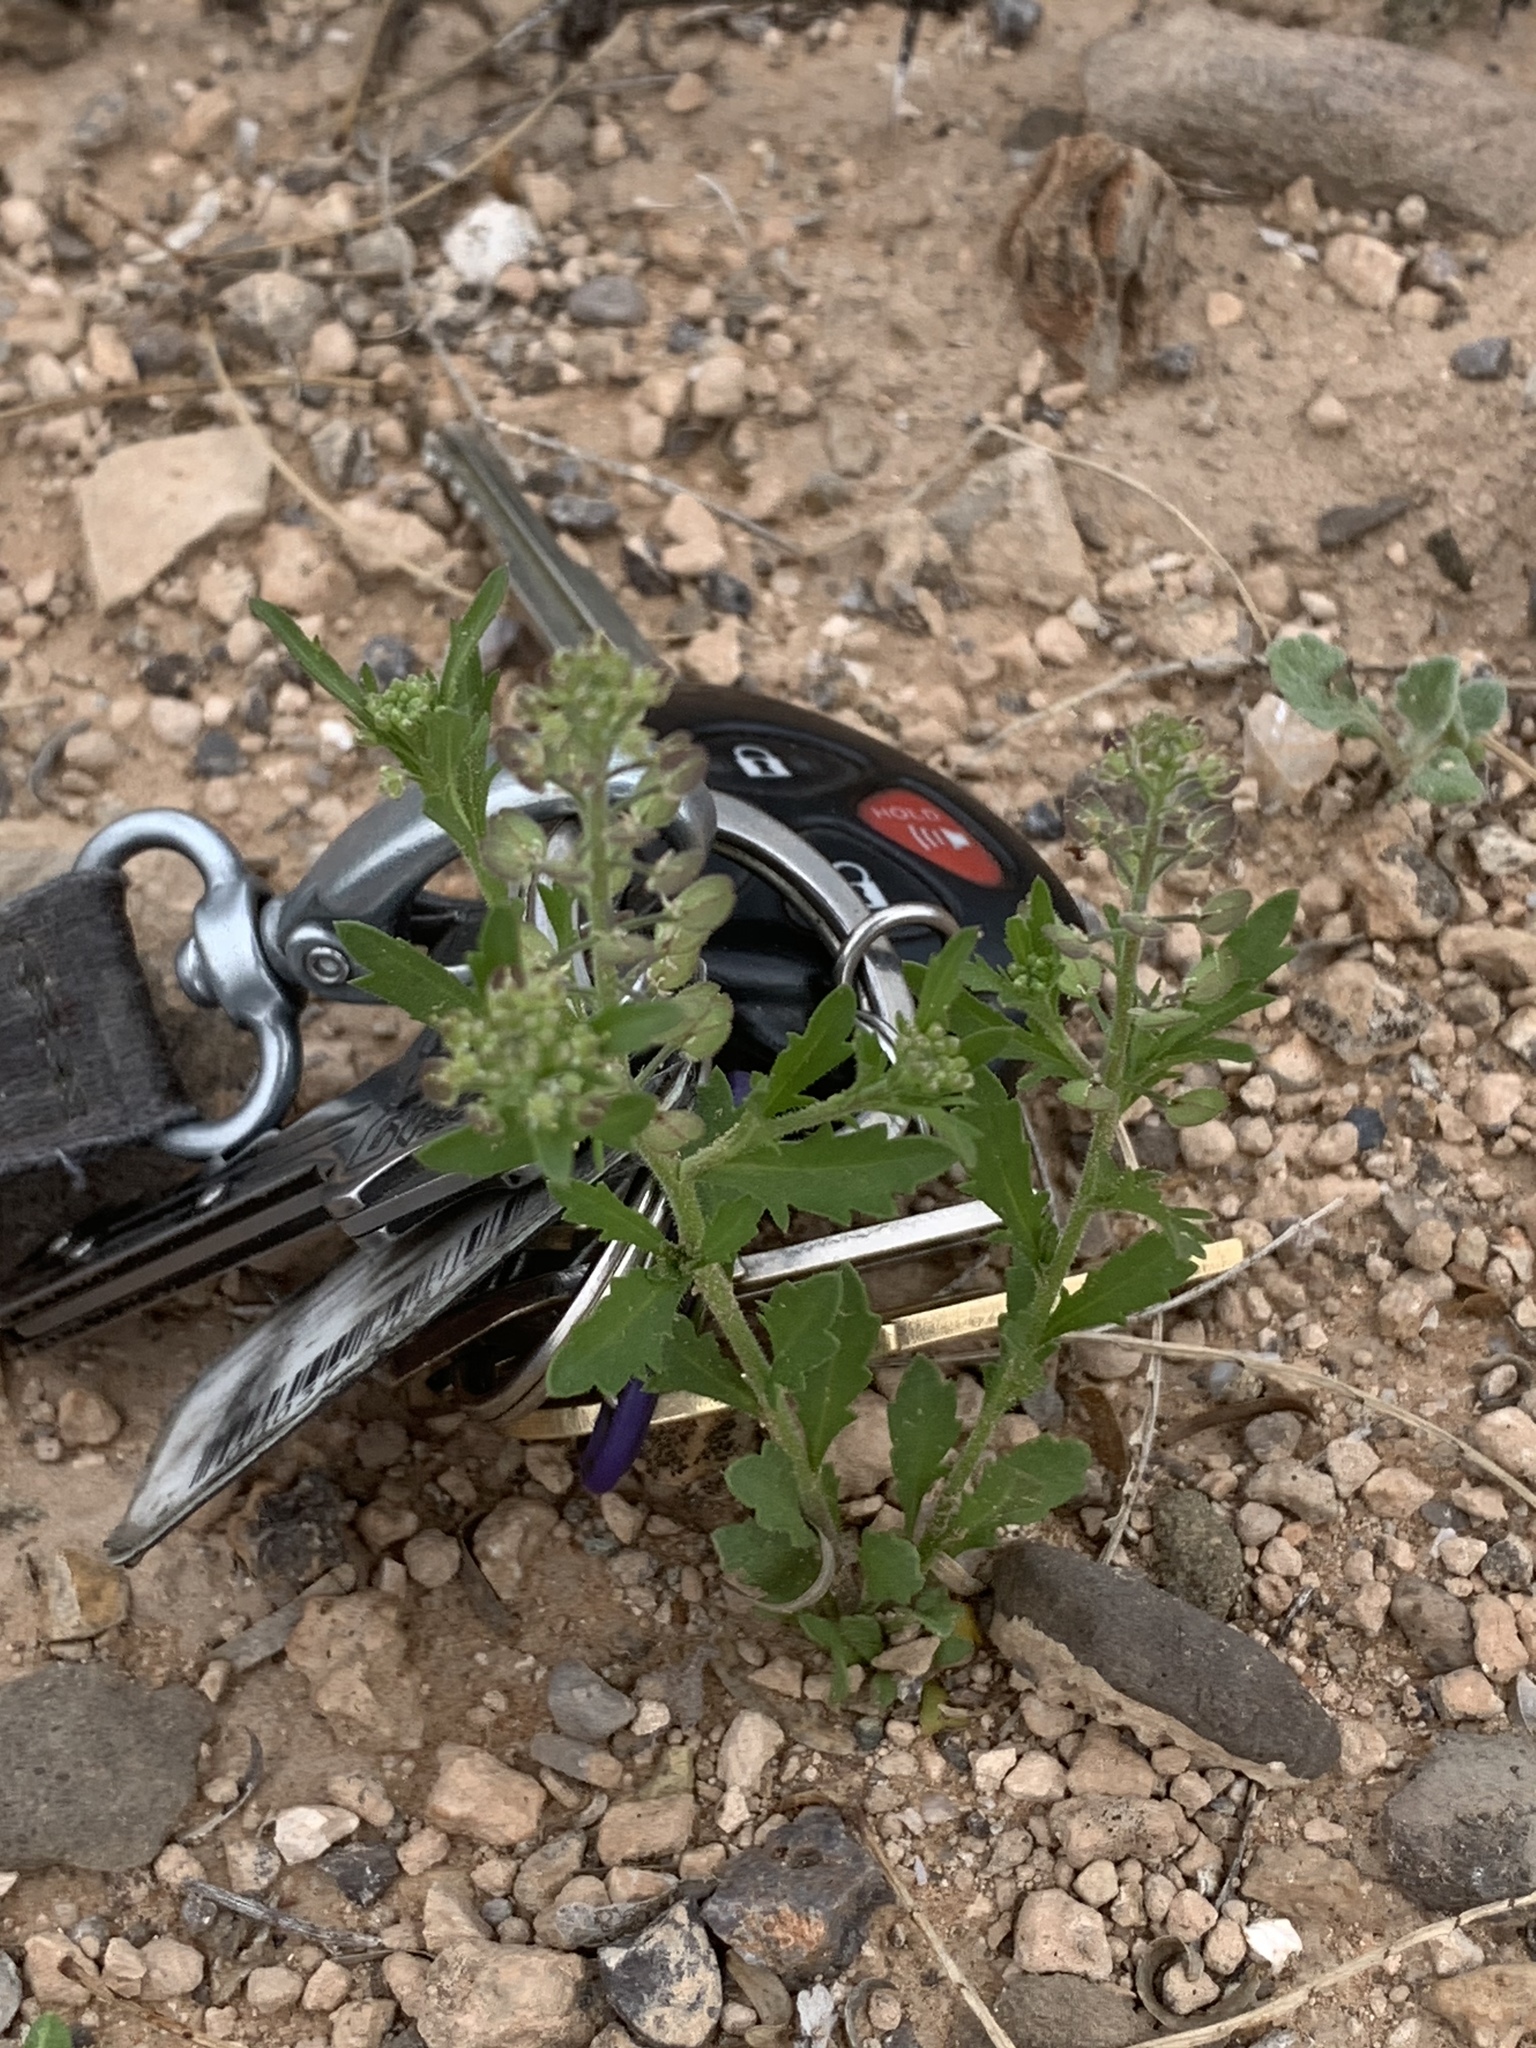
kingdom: Plantae
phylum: Tracheophyta
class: Magnoliopsida
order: Brassicales
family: Brassicaceae
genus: Lepidium
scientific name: Lepidium lasiocarpum
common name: Hairy-pod pepperwort
